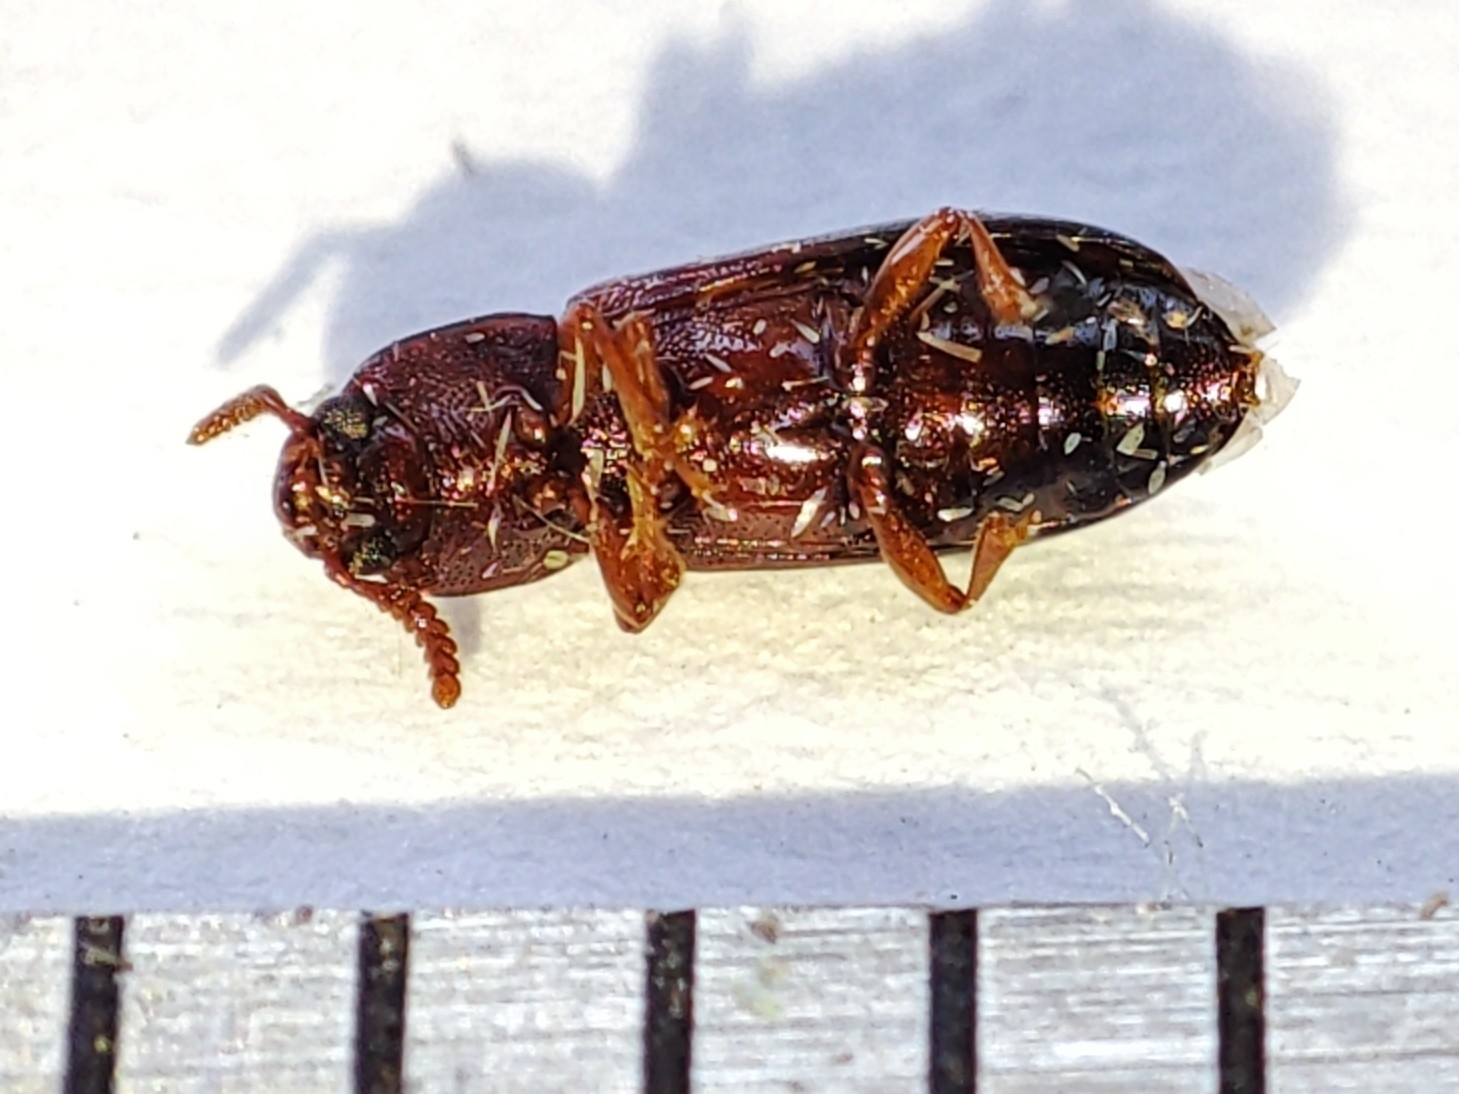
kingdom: Animalia
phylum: Arthropoda
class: Insecta
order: Coleoptera
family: Tenebrionidae
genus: Corticeus
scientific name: Corticeus bicolor
